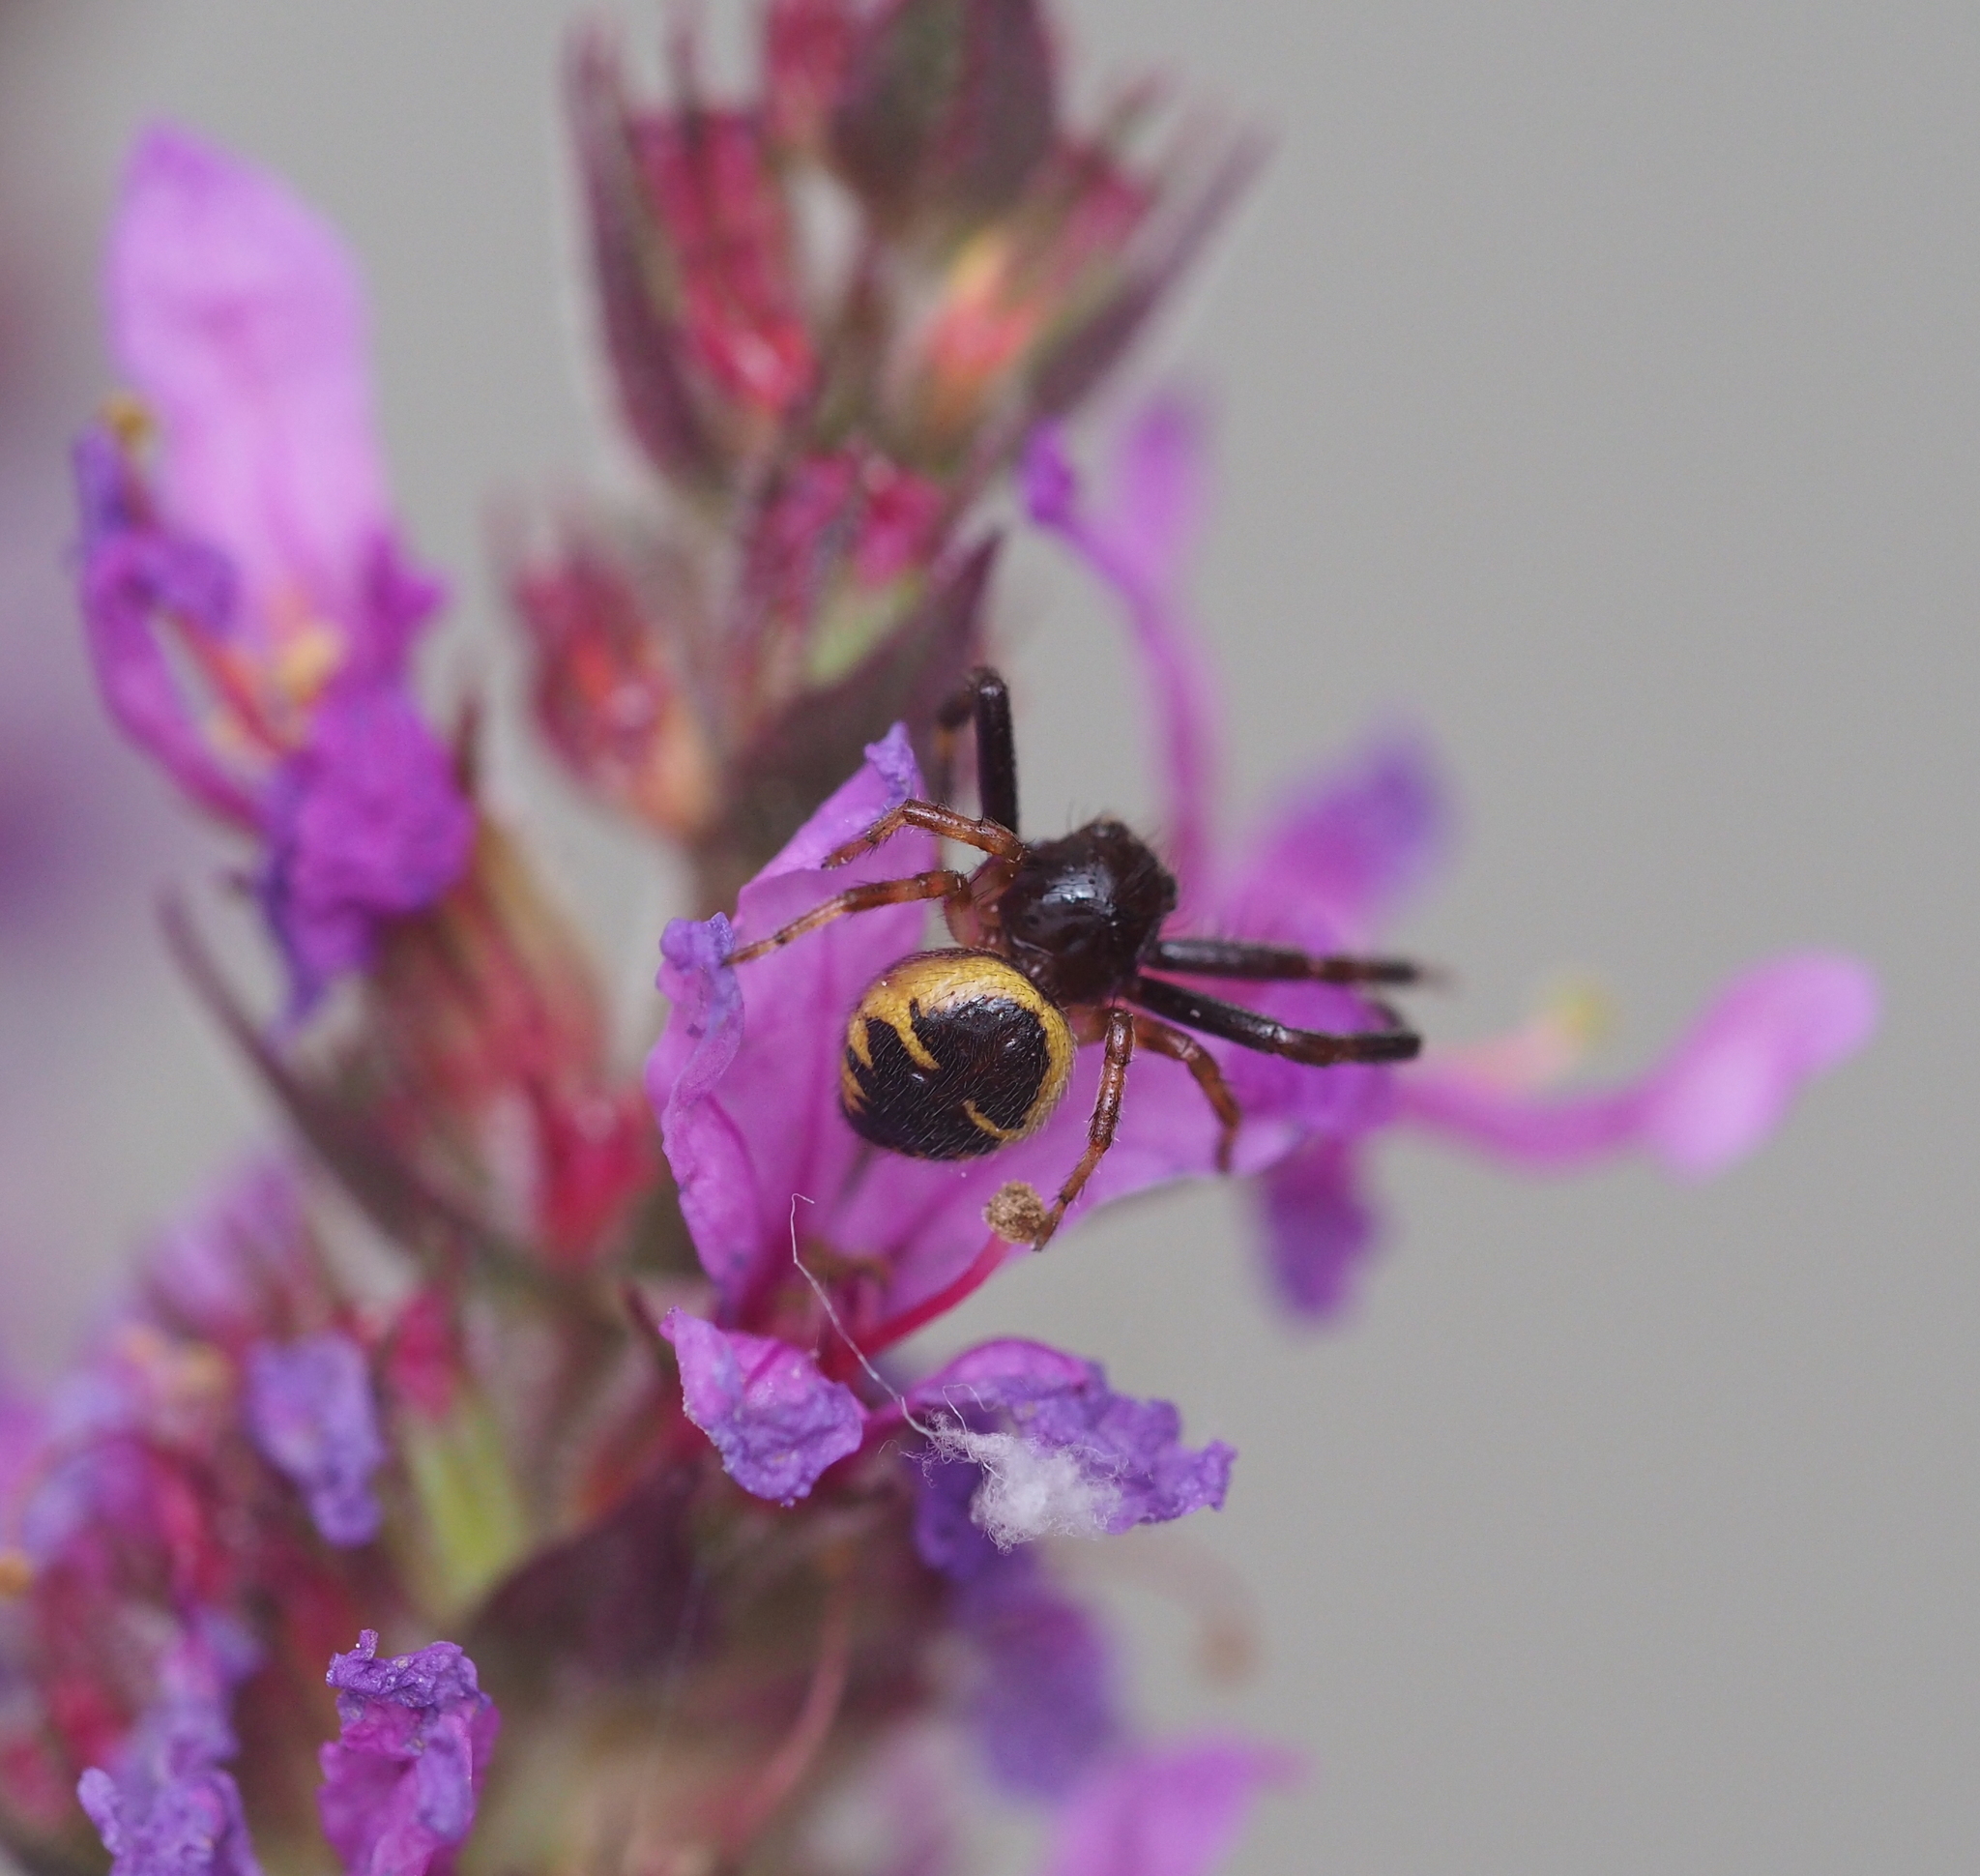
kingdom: Animalia
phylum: Arthropoda
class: Arachnida
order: Araneae
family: Thomisidae
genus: Synema
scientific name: Synema globosum
